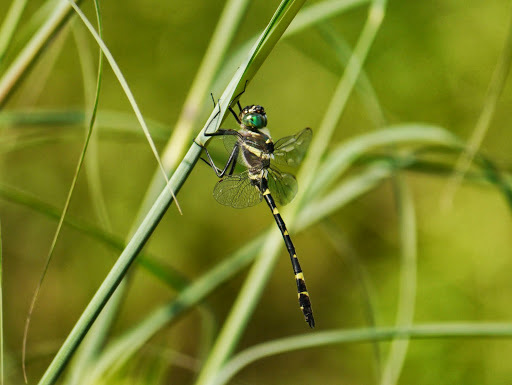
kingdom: Animalia
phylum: Arthropoda
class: Insecta
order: Odonata
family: Macromiidae
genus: Macromia
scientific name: Macromia illinoiensis
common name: Swift river cruiser
